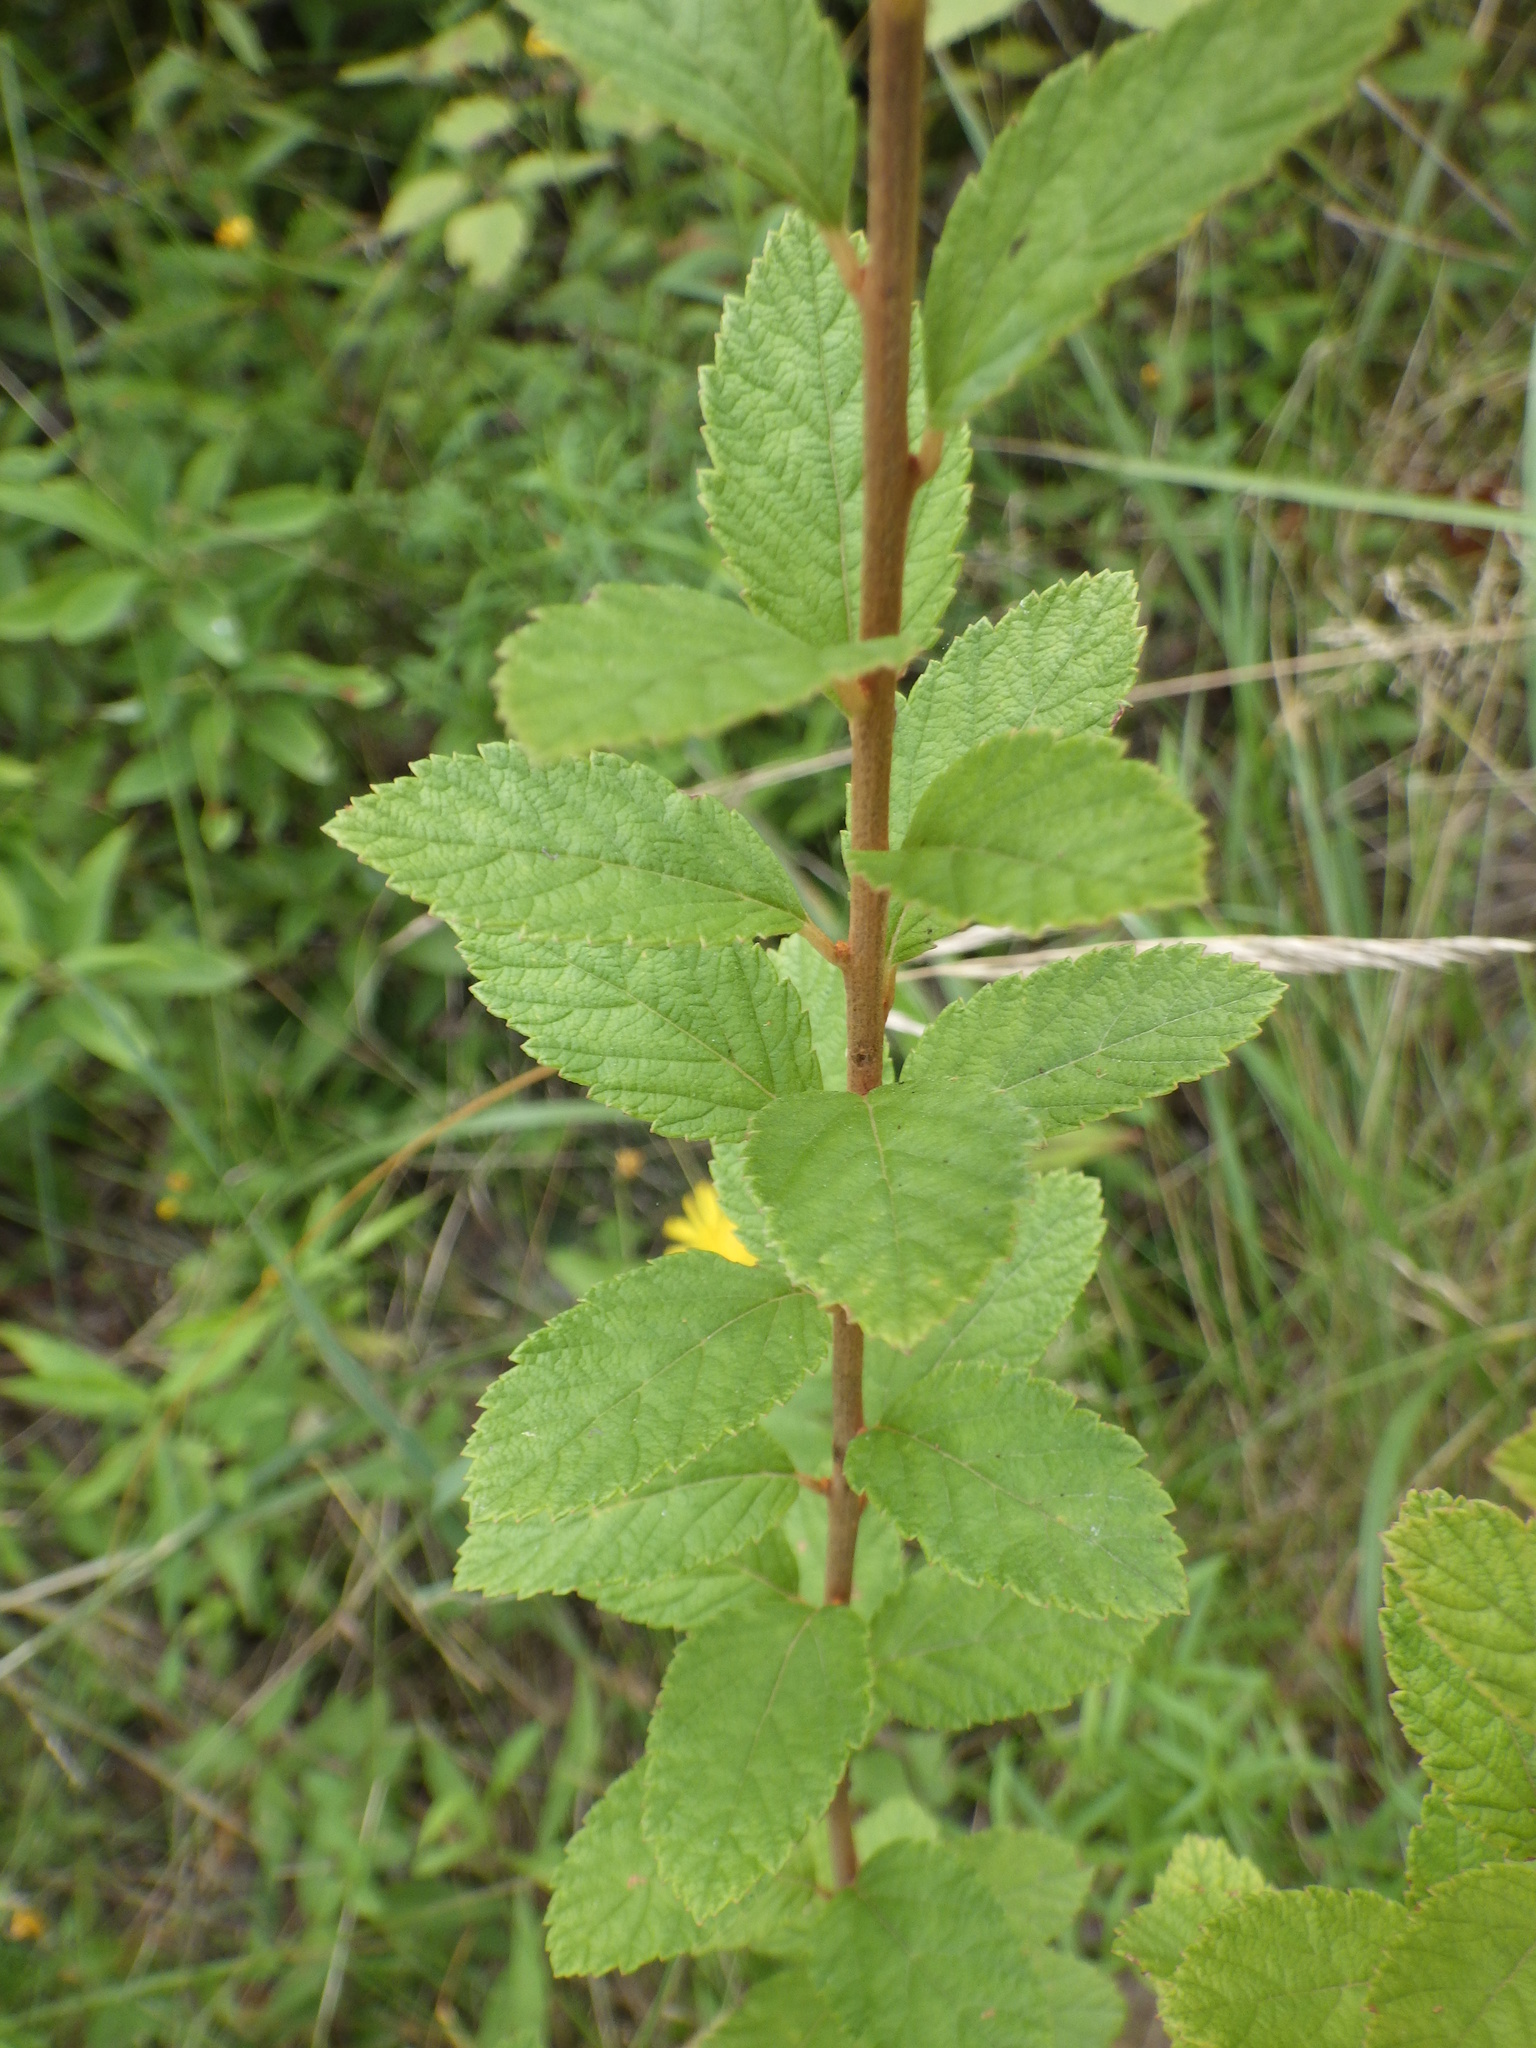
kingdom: Plantae
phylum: Tracheophyta
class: Magnoliopsida
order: Rosales
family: Rosaceae
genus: Spiraea
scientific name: Spiraea tomentosa
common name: Hardhack
